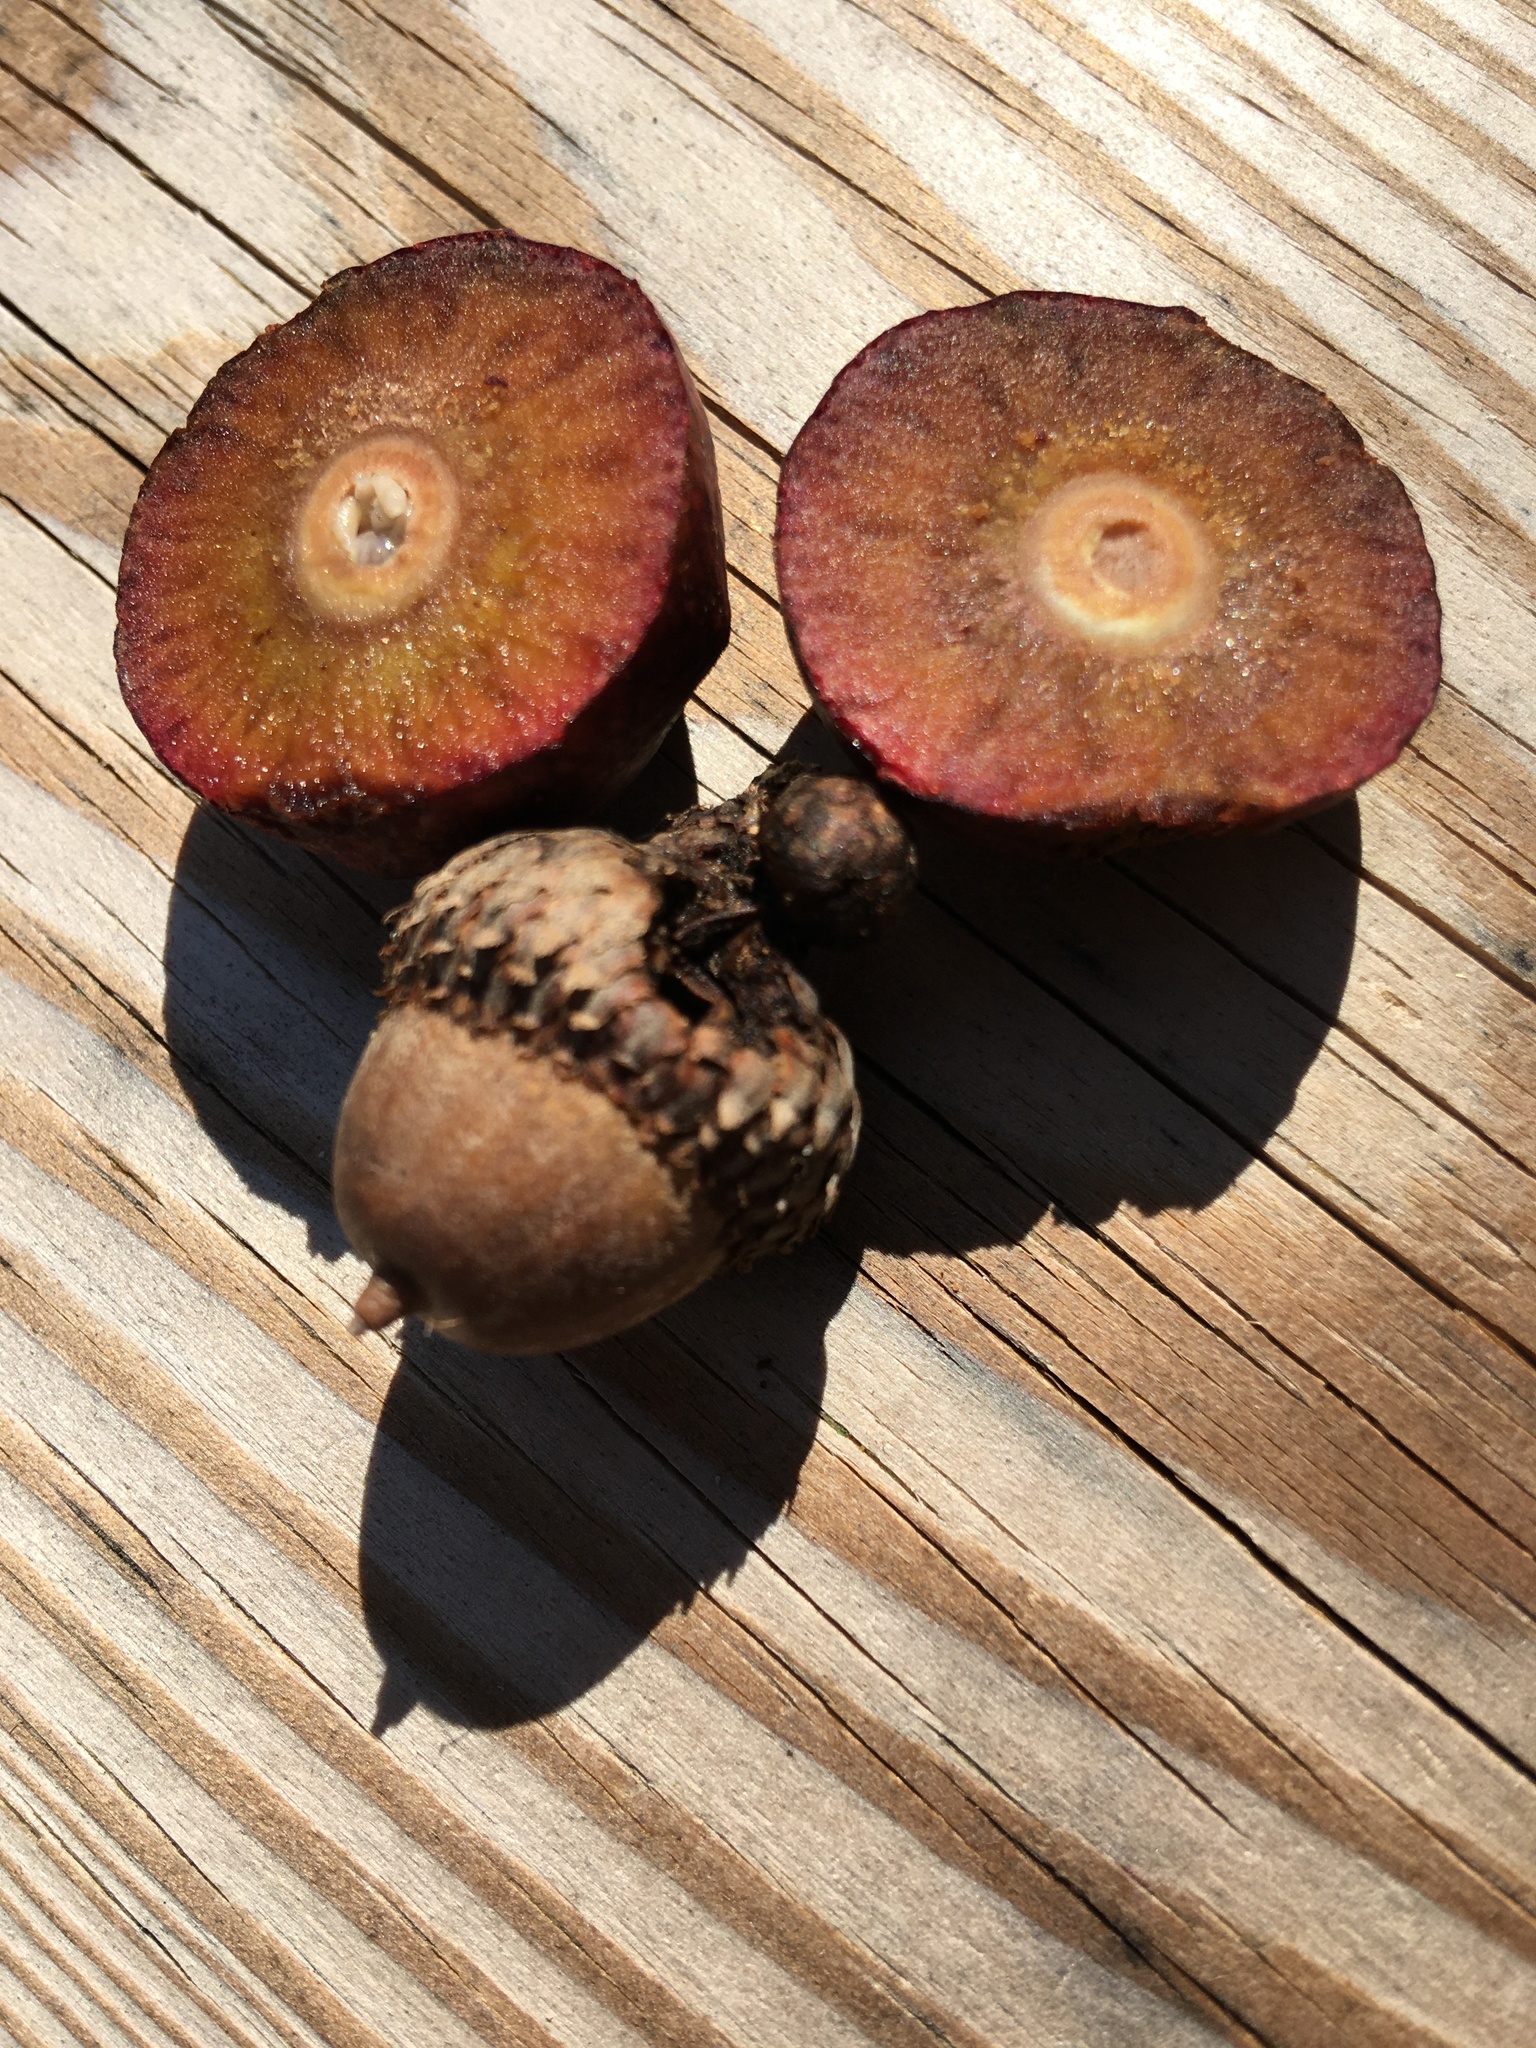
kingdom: Animalia
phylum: Arthropoda
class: Insecta
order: Hymenoptera
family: Cynipidae
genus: Amphibolips
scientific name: Amphibolips
